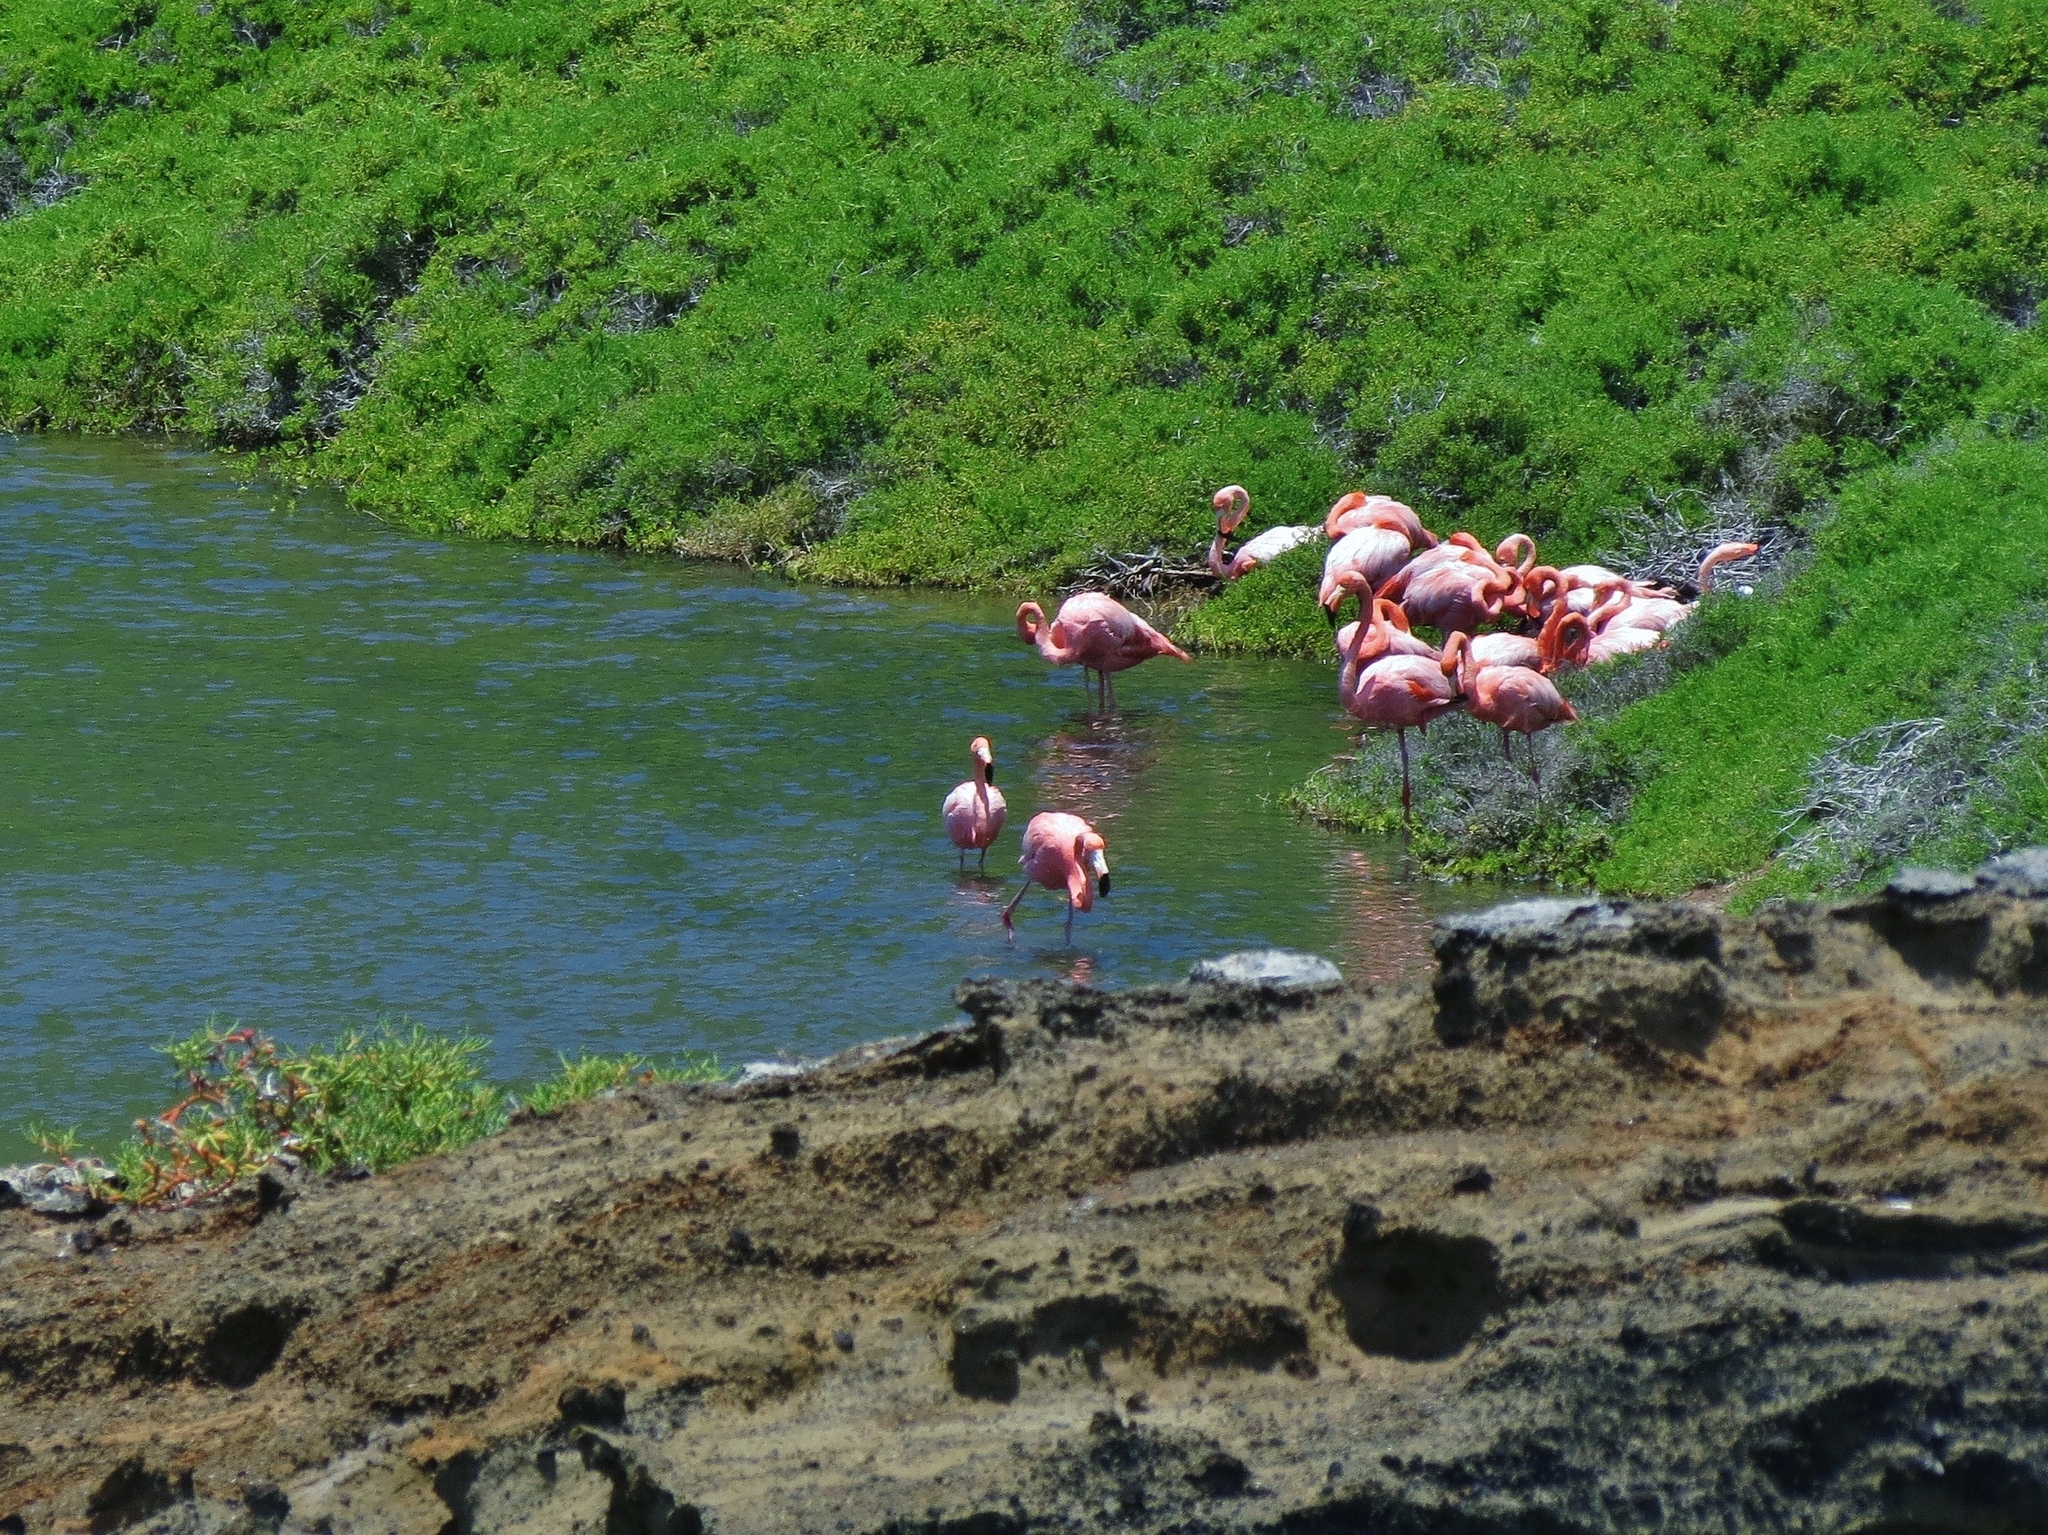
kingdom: Animalia
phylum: Chordata
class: Aves
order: Phoenicopteriformes
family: Phoenicopteridae
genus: Phoenicopterus
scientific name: Phoenicopterus ruber
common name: American flamingo
